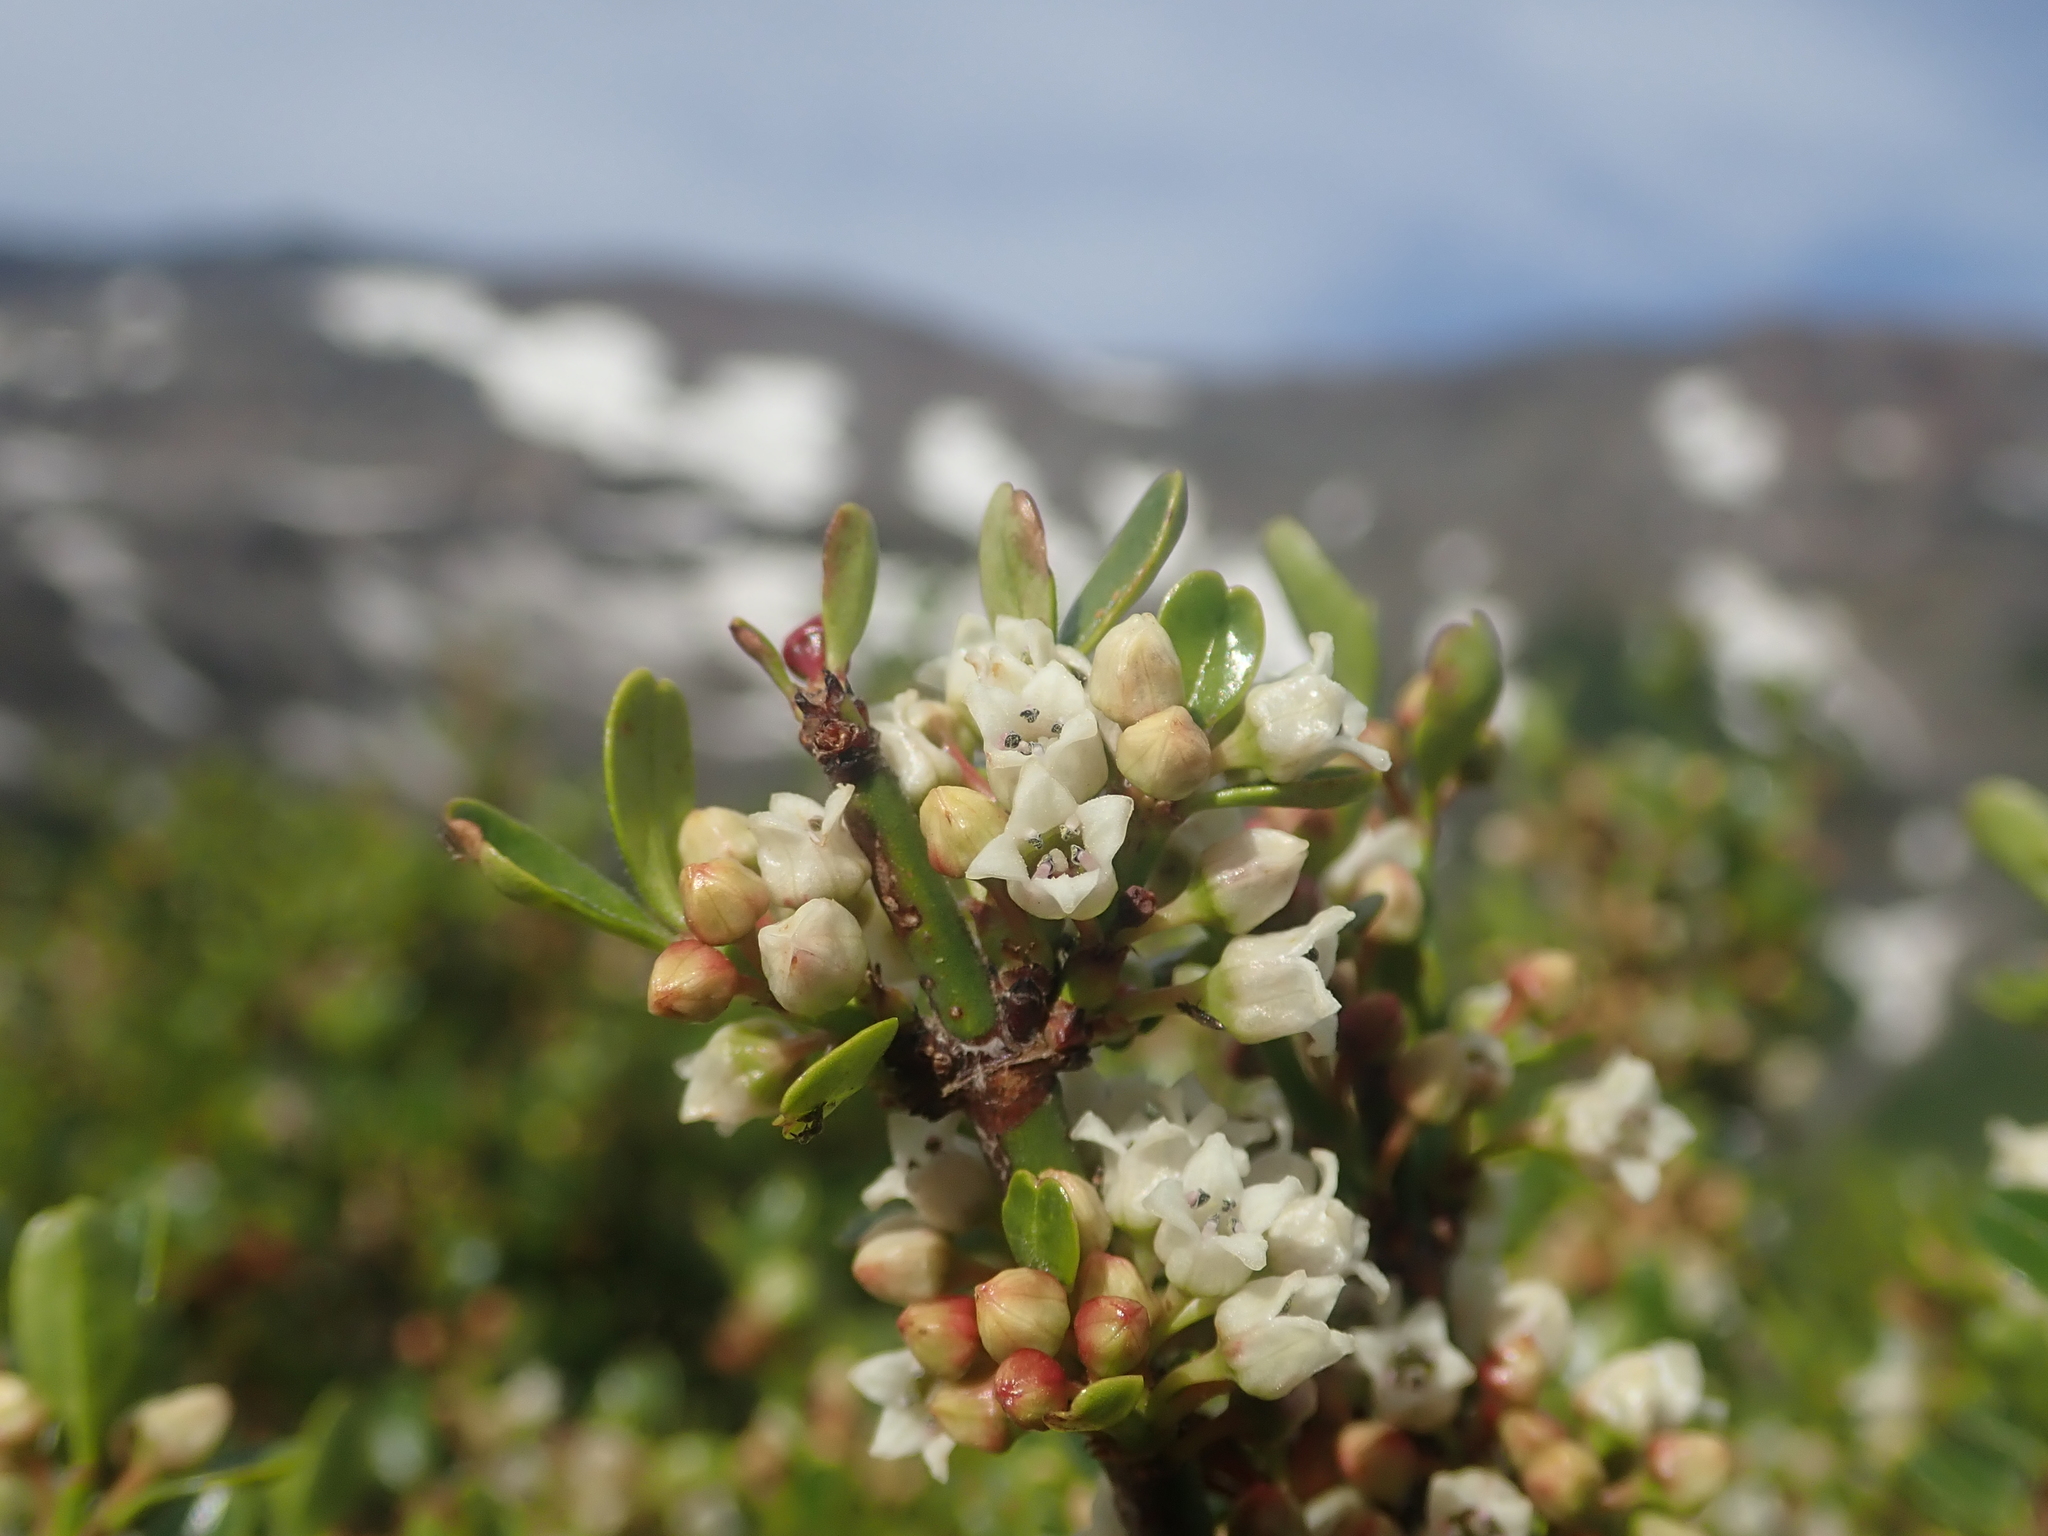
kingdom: Plantae
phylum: Tracheophyta
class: Magnoliopsida
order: Rosales
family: Rhamnaceae
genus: Discaria
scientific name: Discaria chacaye
